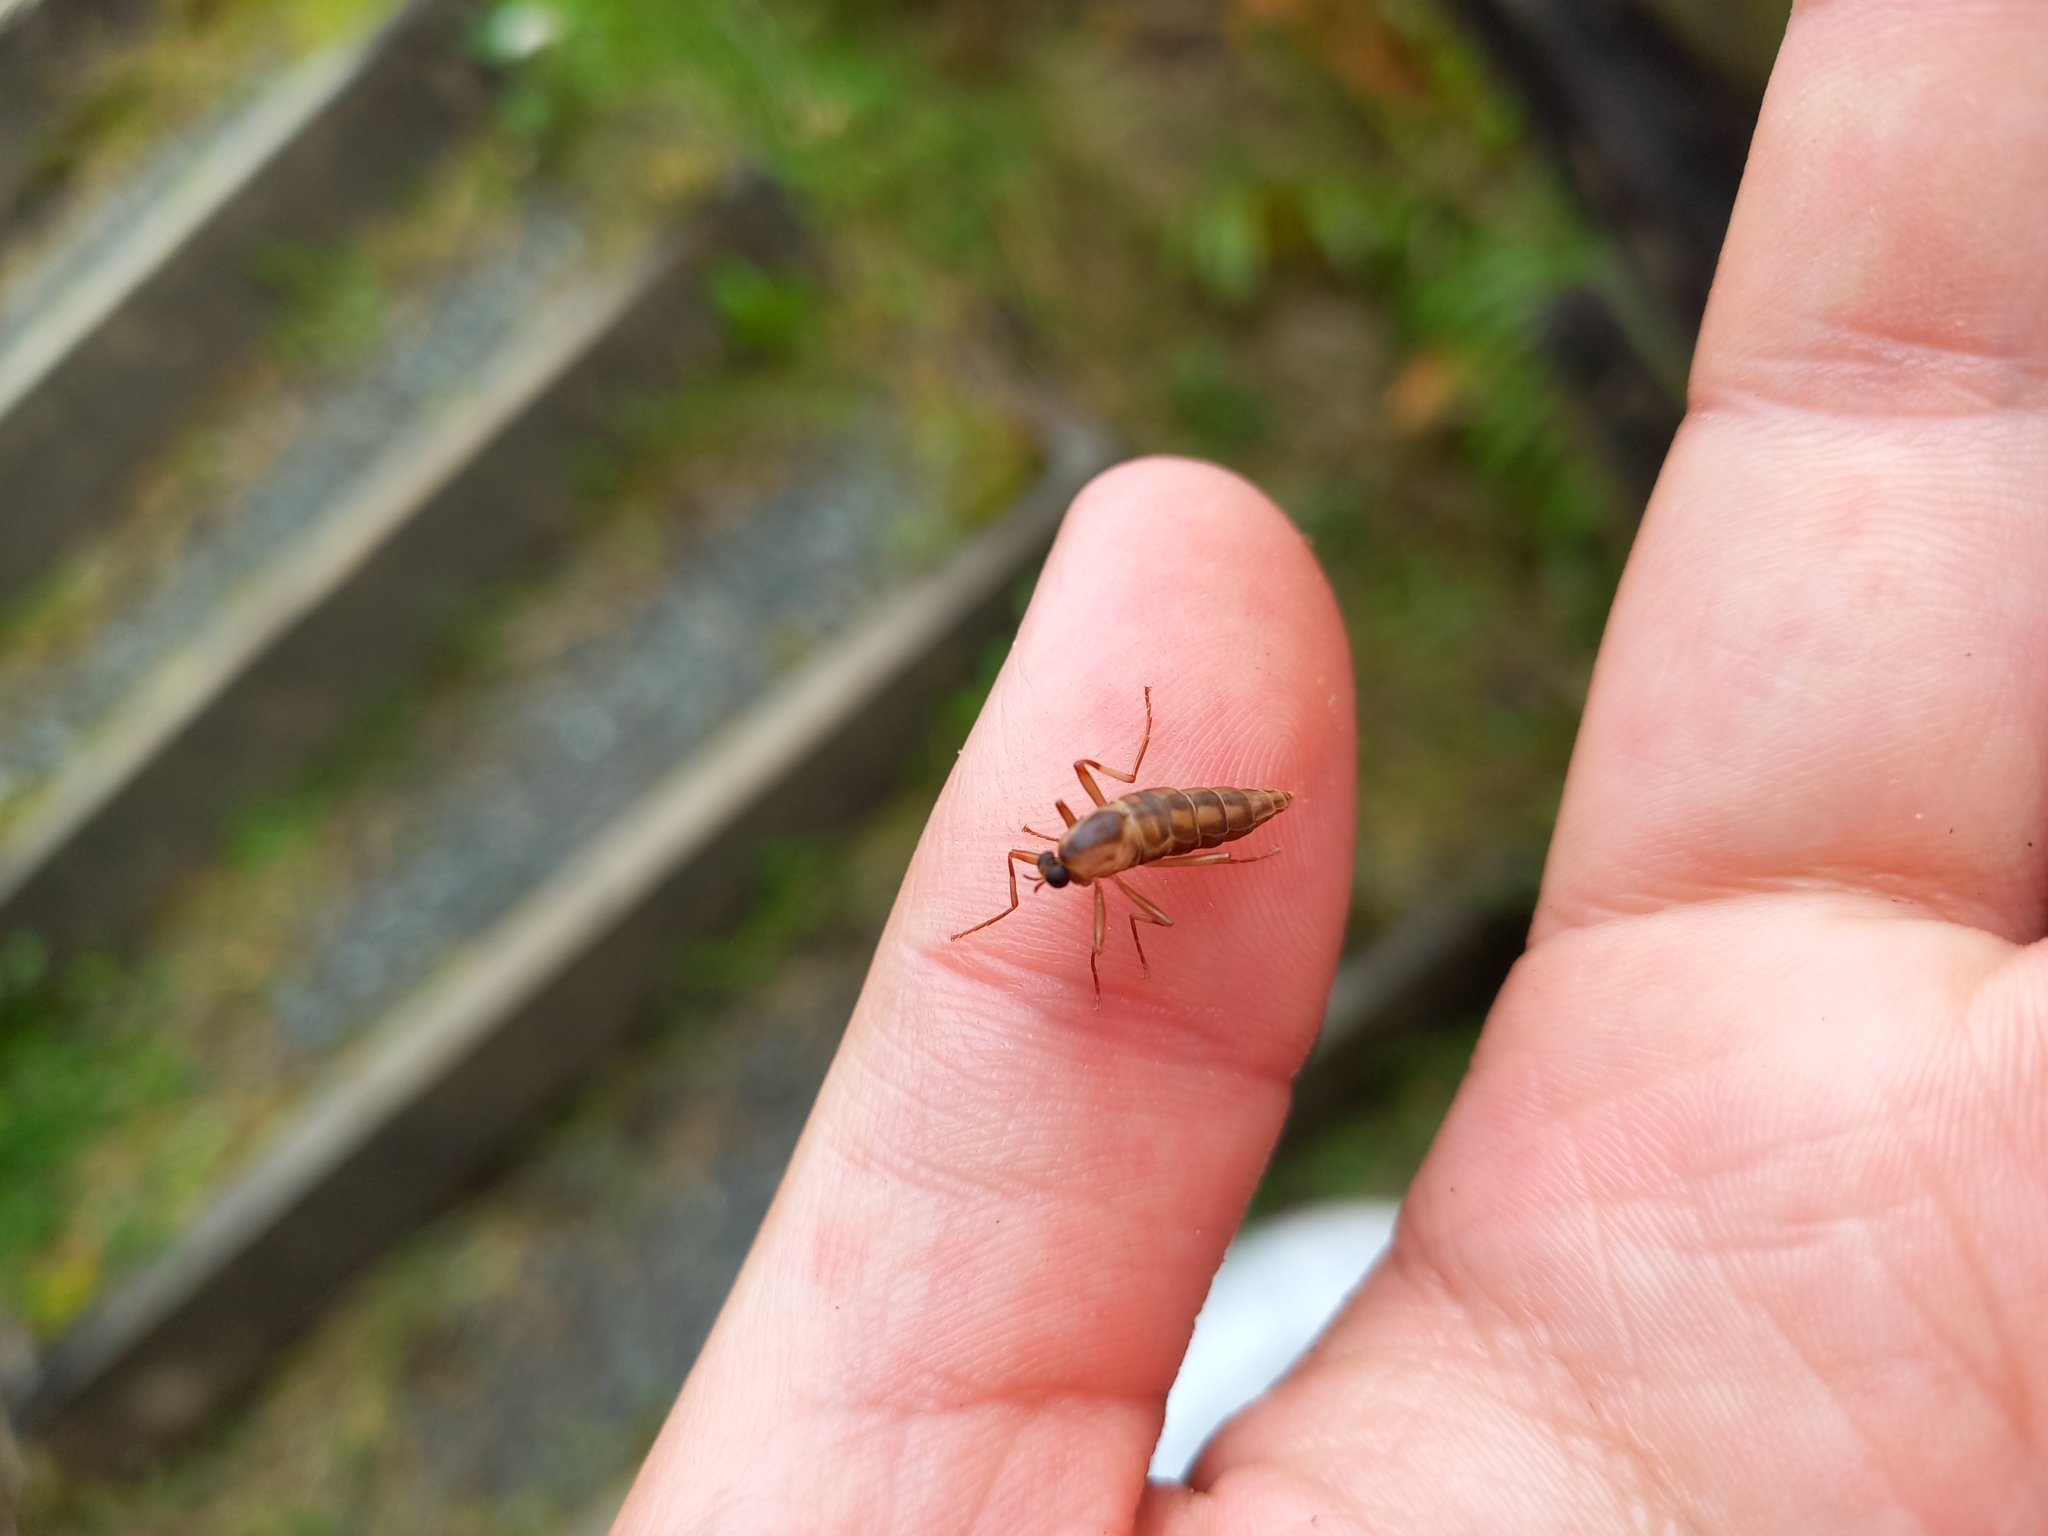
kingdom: Animalia
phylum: Arthropoda
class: Insecta
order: Diptera
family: Stratiomyidae
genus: Boreoides
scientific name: Boreoides tasmaniensis
